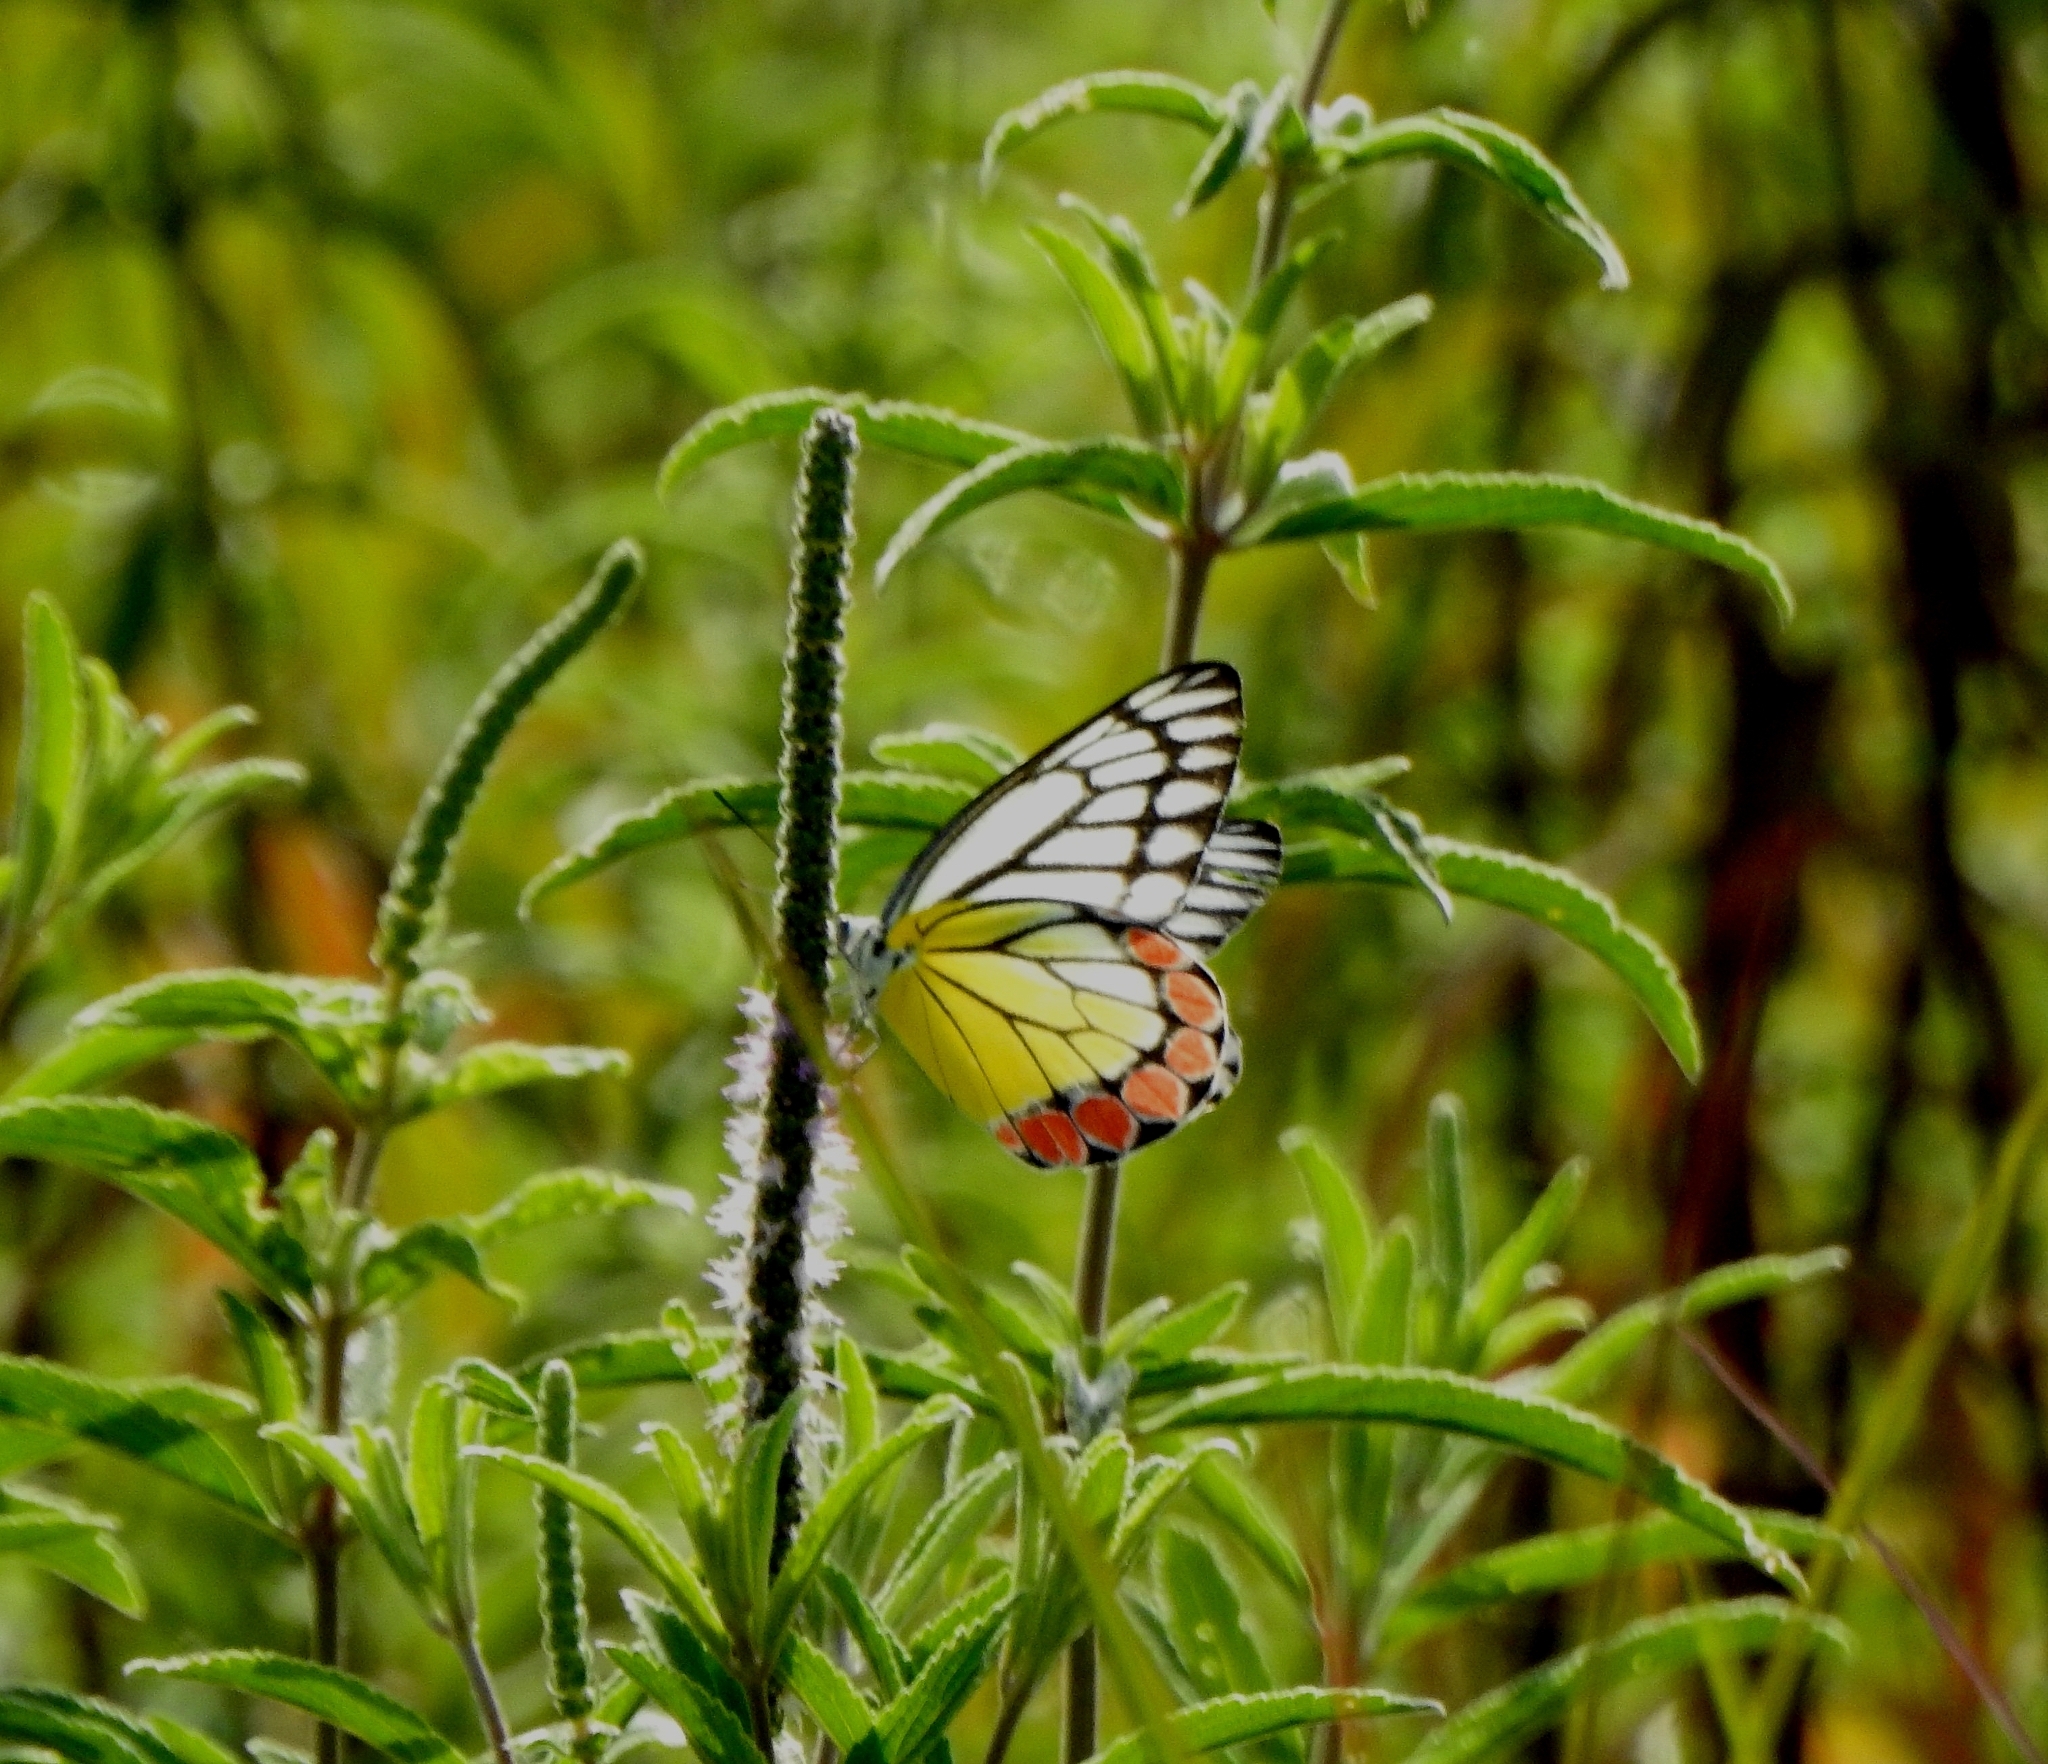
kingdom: Animalia
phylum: Arthropoda
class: Insecta
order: Lepidoptera
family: Pieridae
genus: Delias
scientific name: Delias eucharis
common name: Common jezebel
